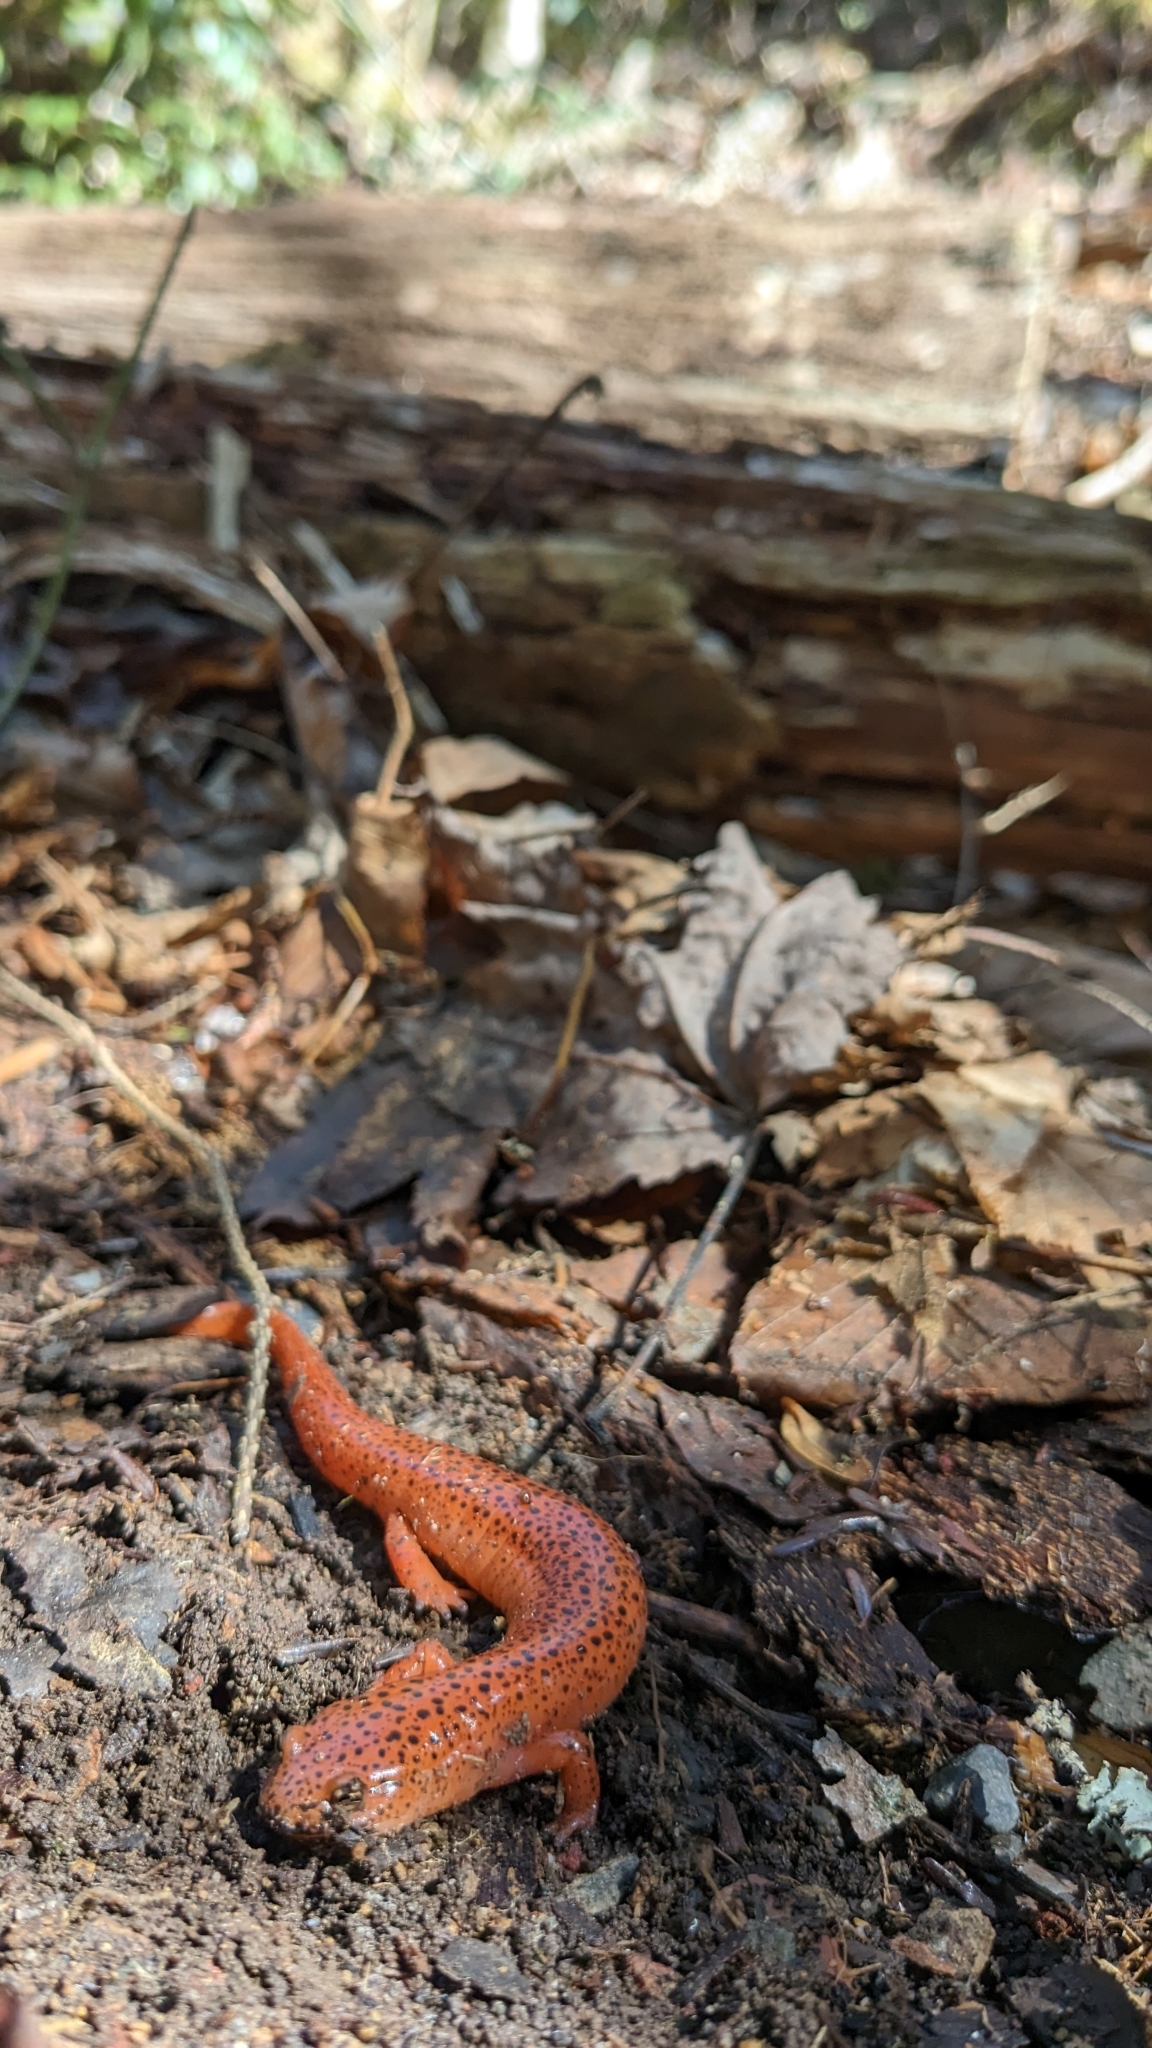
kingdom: Animalia
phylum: Chordata
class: Amphibia
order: Caudata
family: Plethodontidae
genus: Pseudotriton
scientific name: Pseudotriton ruber
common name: Red salamander
